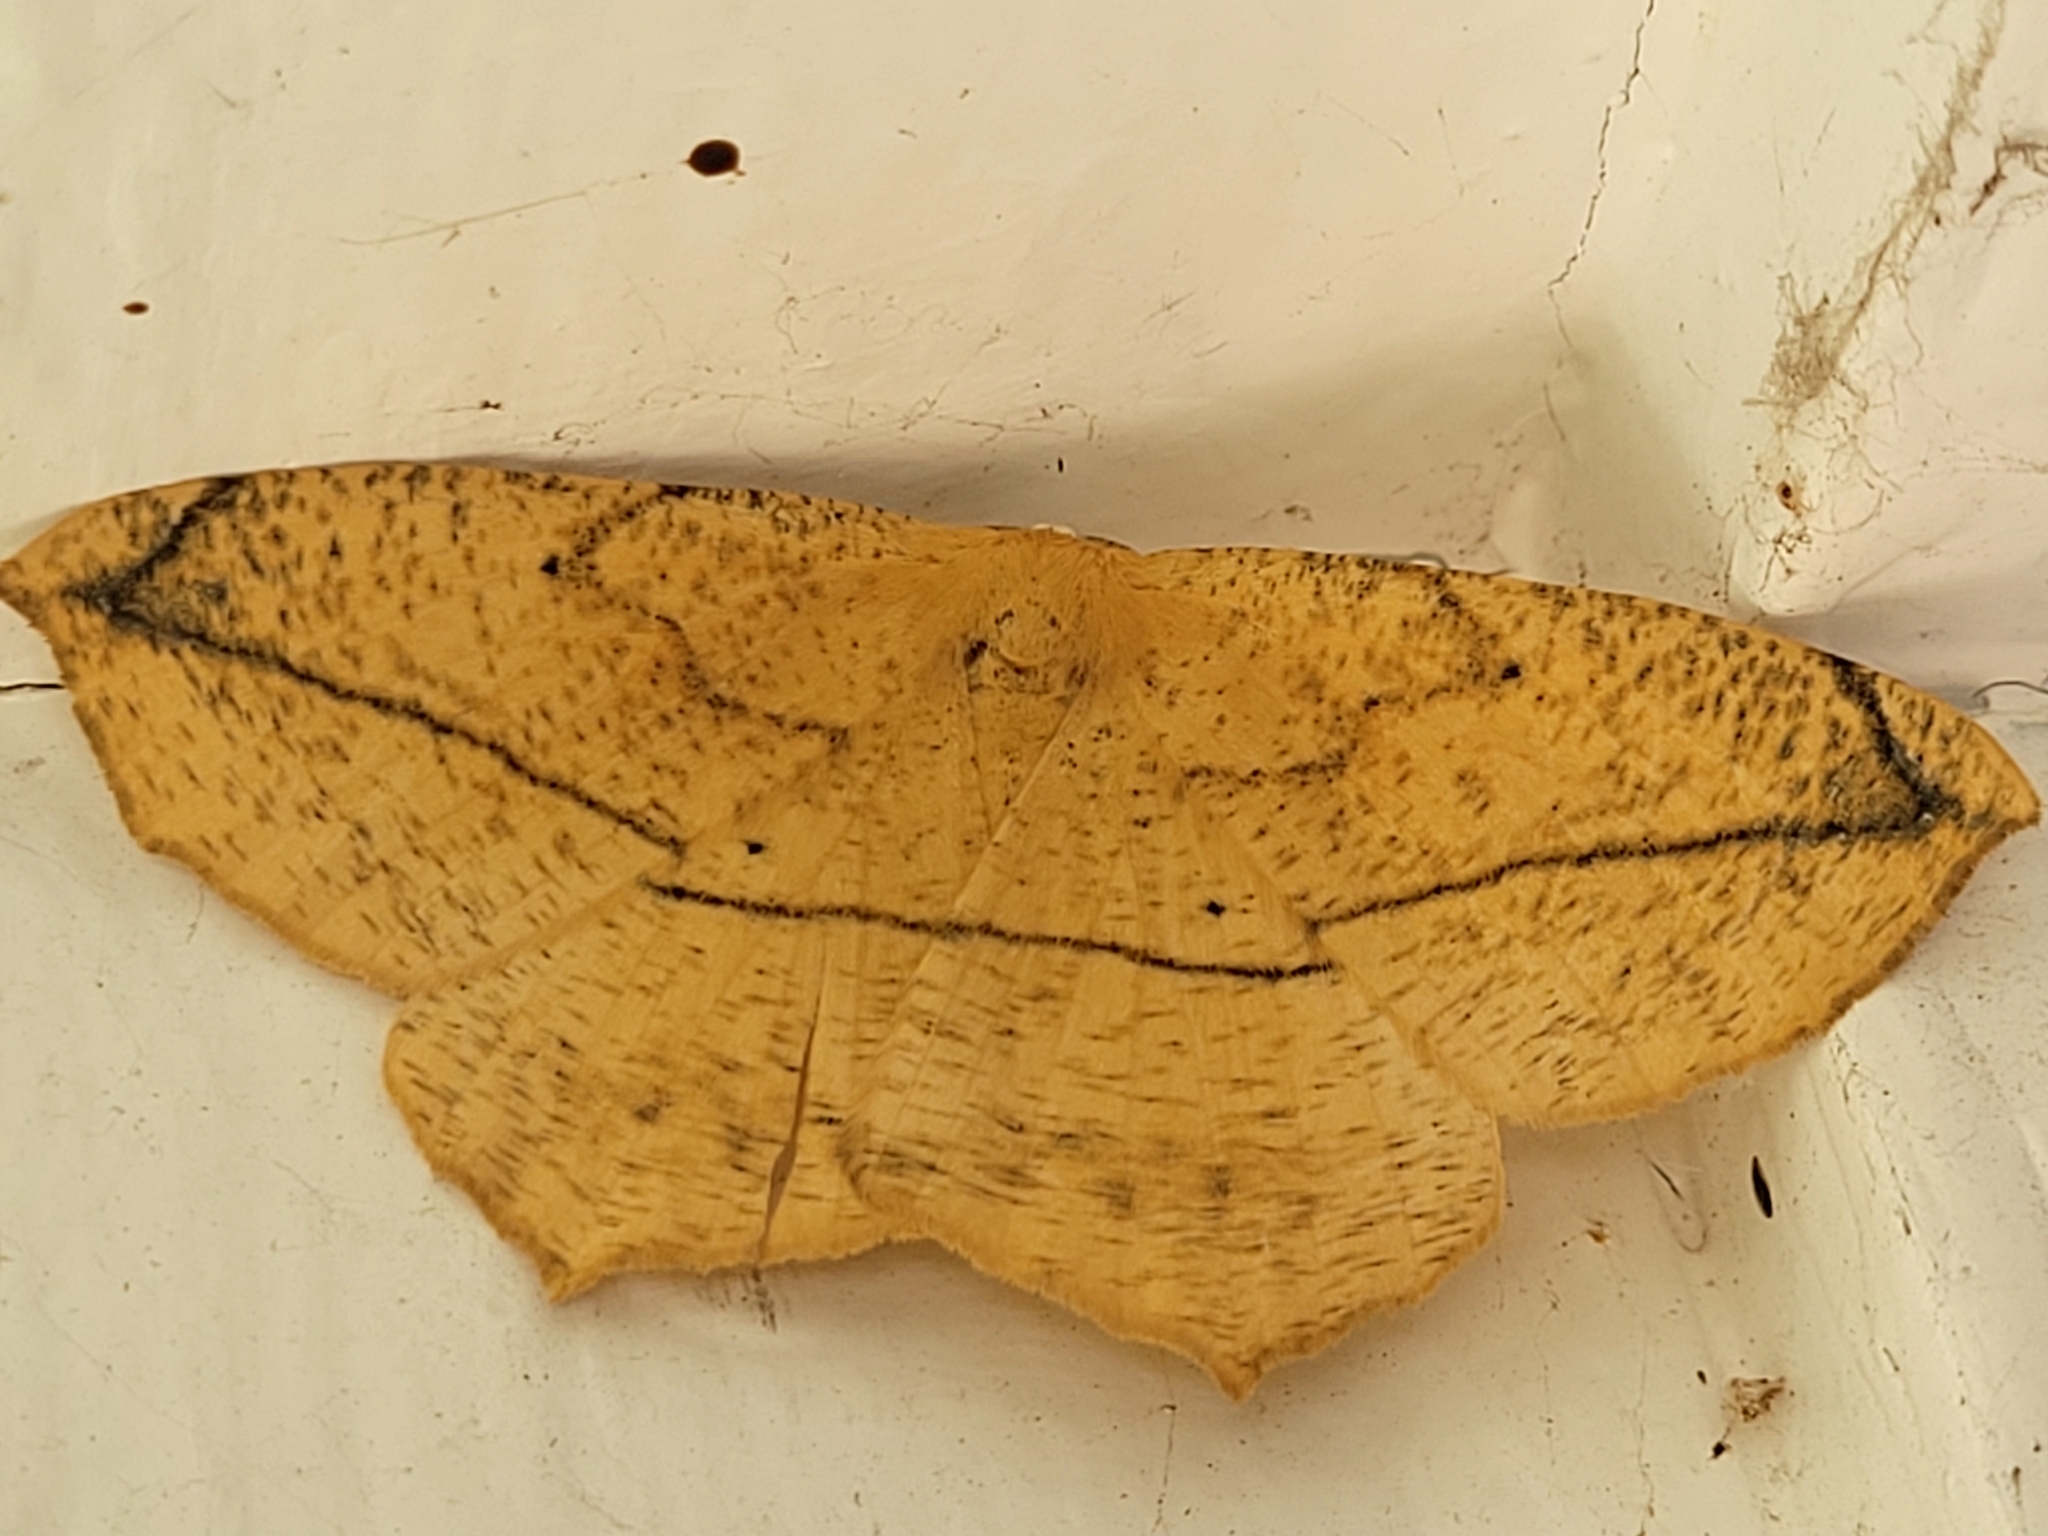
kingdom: Animalia
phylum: Arthropoda
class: Insecta
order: Lepidoptera
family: Geometridae
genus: Prochoerodes
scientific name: Prochoerodes lineola
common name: Large maple spanworm
